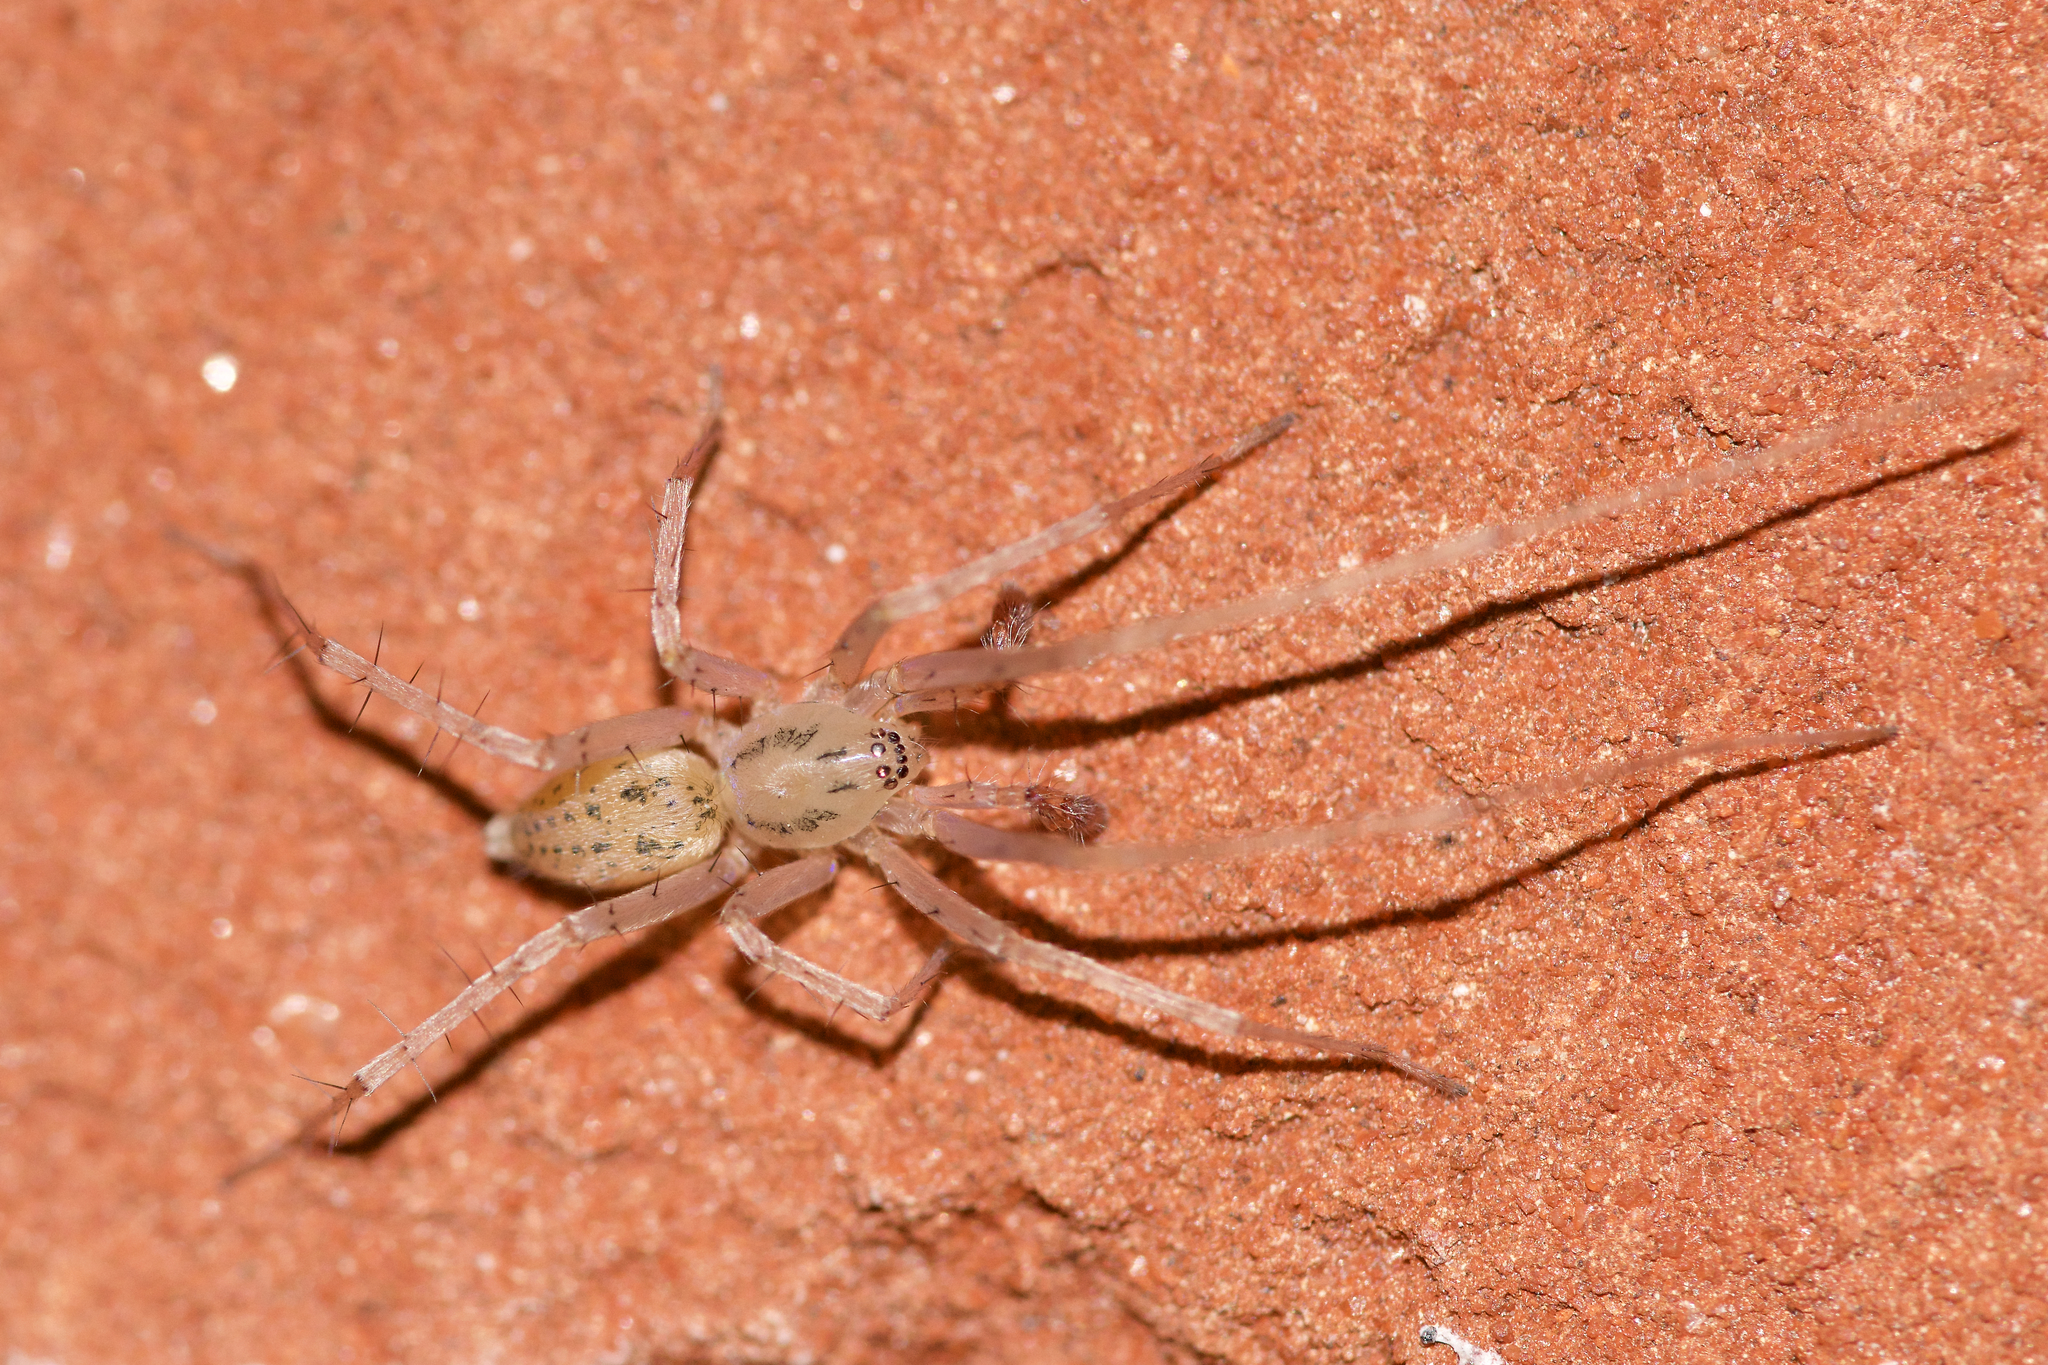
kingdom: Animalia
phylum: Arthropoda
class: Arachnida
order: Araneae
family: Anyphaenidae
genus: Wulfila
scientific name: Wulfila saltabundus
